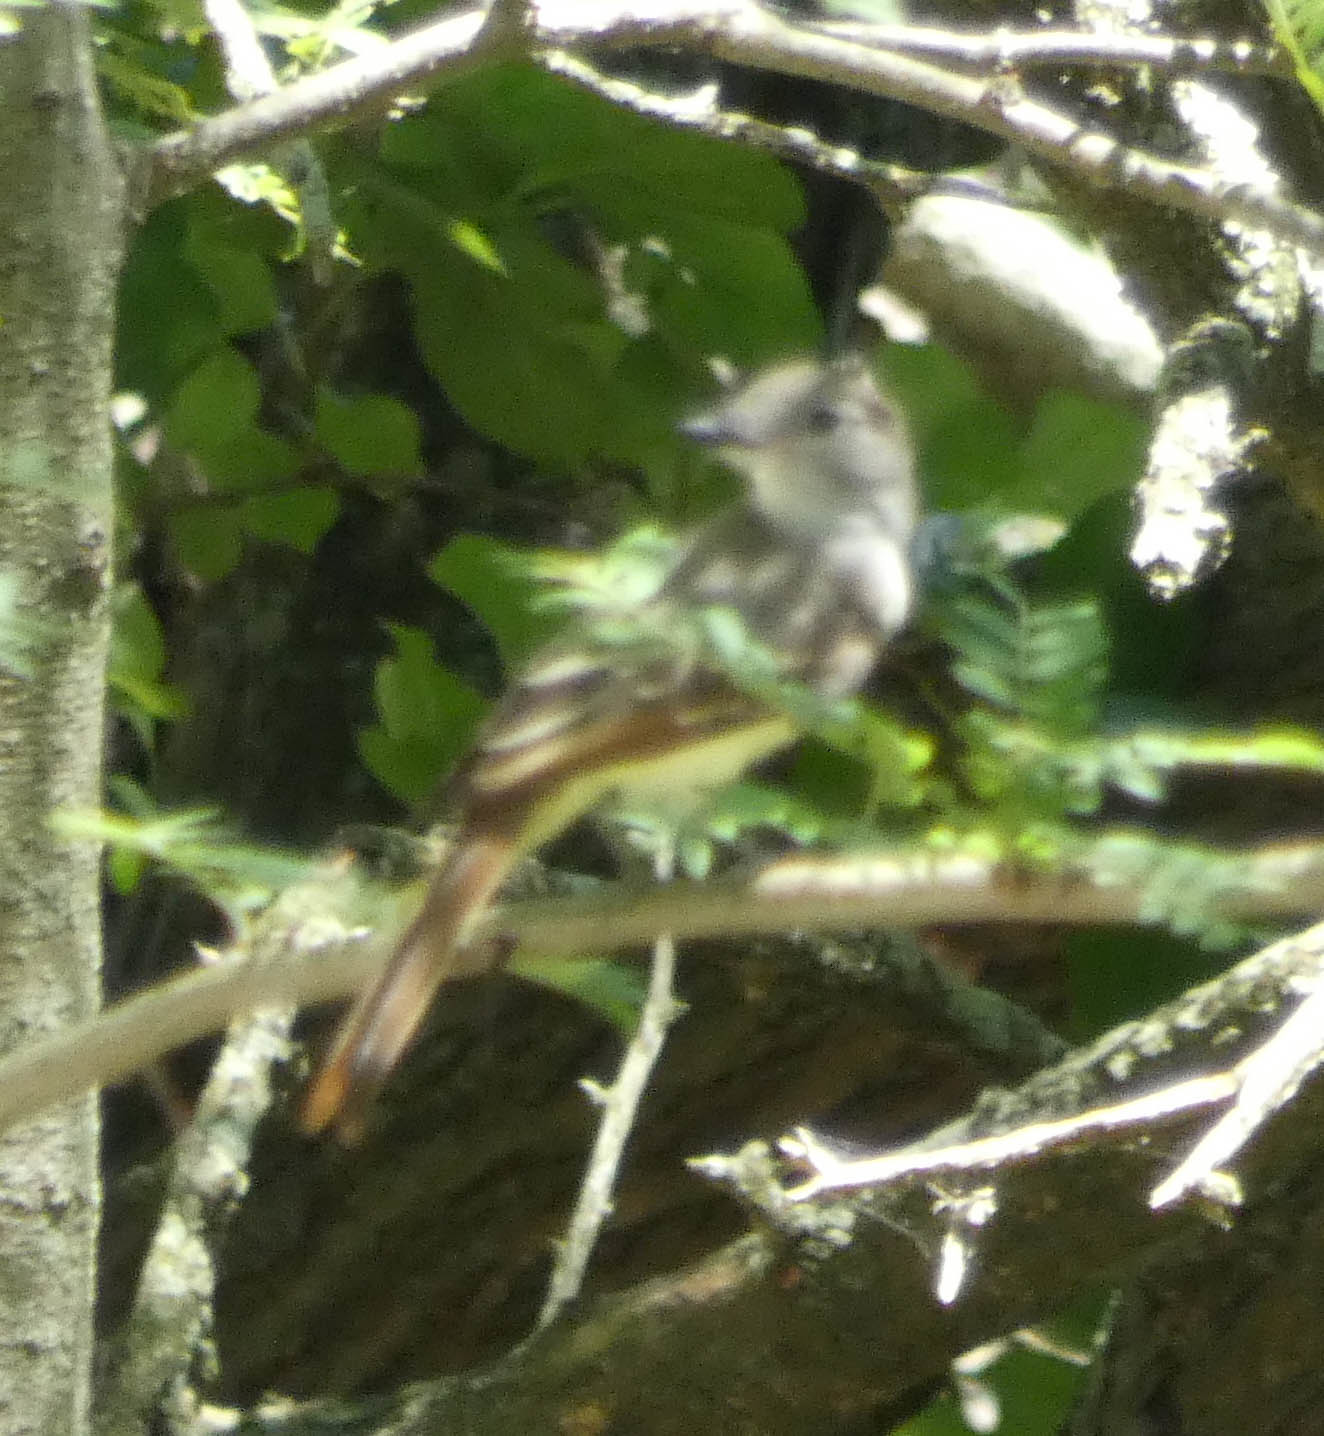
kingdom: Animalia
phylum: Chordata
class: Aves
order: Passeriformes
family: Tyrannidae
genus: Myiarchus
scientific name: Myiarchus crinitus
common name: Great crested flycatcher
